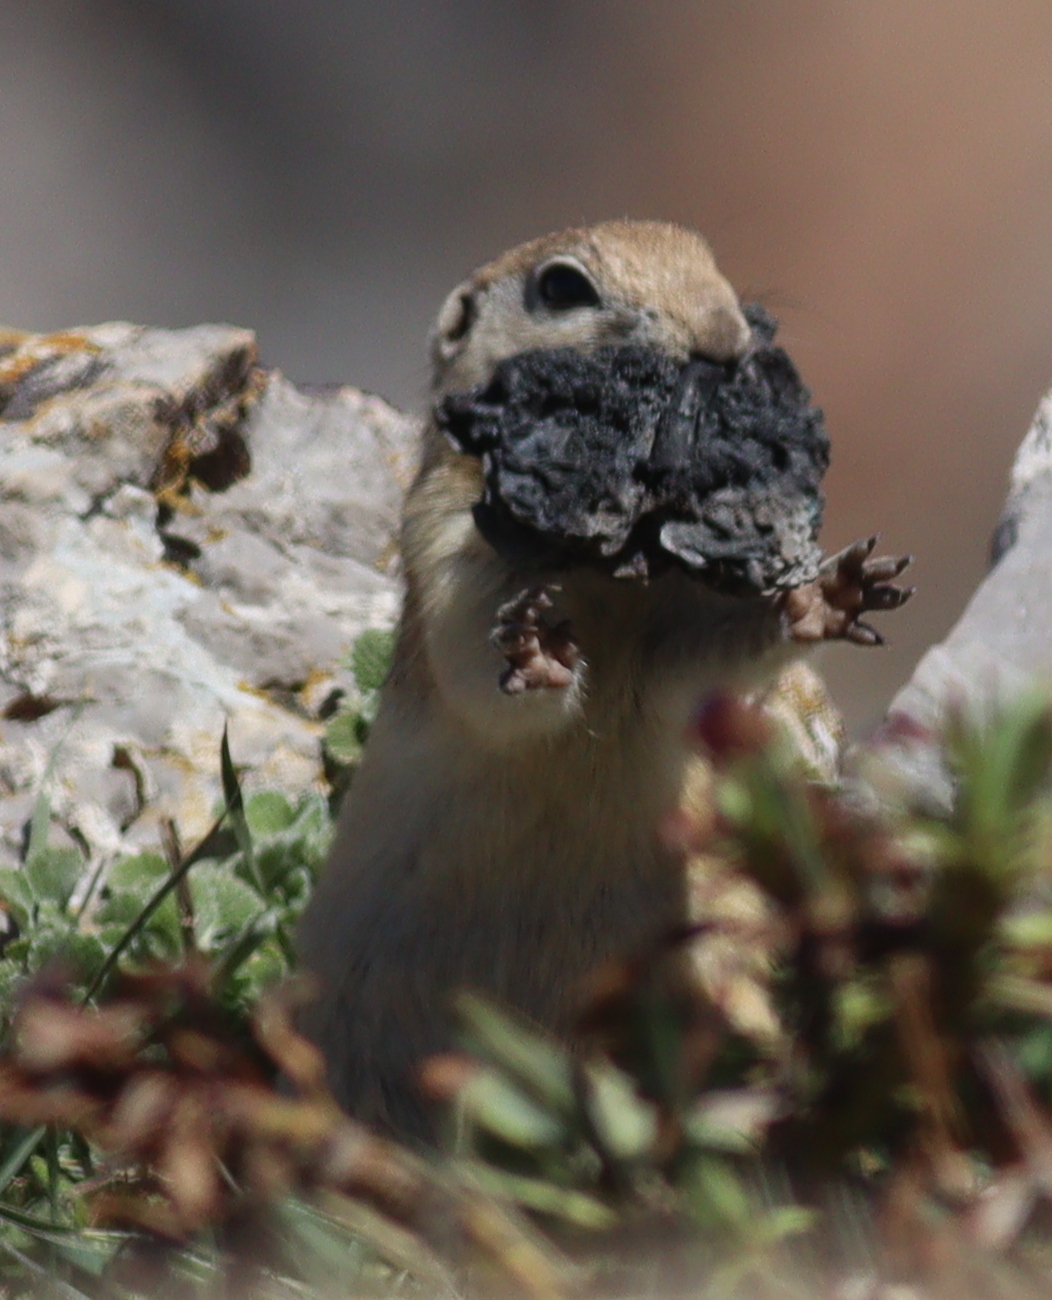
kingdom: Animalia
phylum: Chordata
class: Mammalia
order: Rodentia
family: Sciuridae
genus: Spermophilus
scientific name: Spermophilus xanthoprymnus
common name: Asia minor ground squirrel
